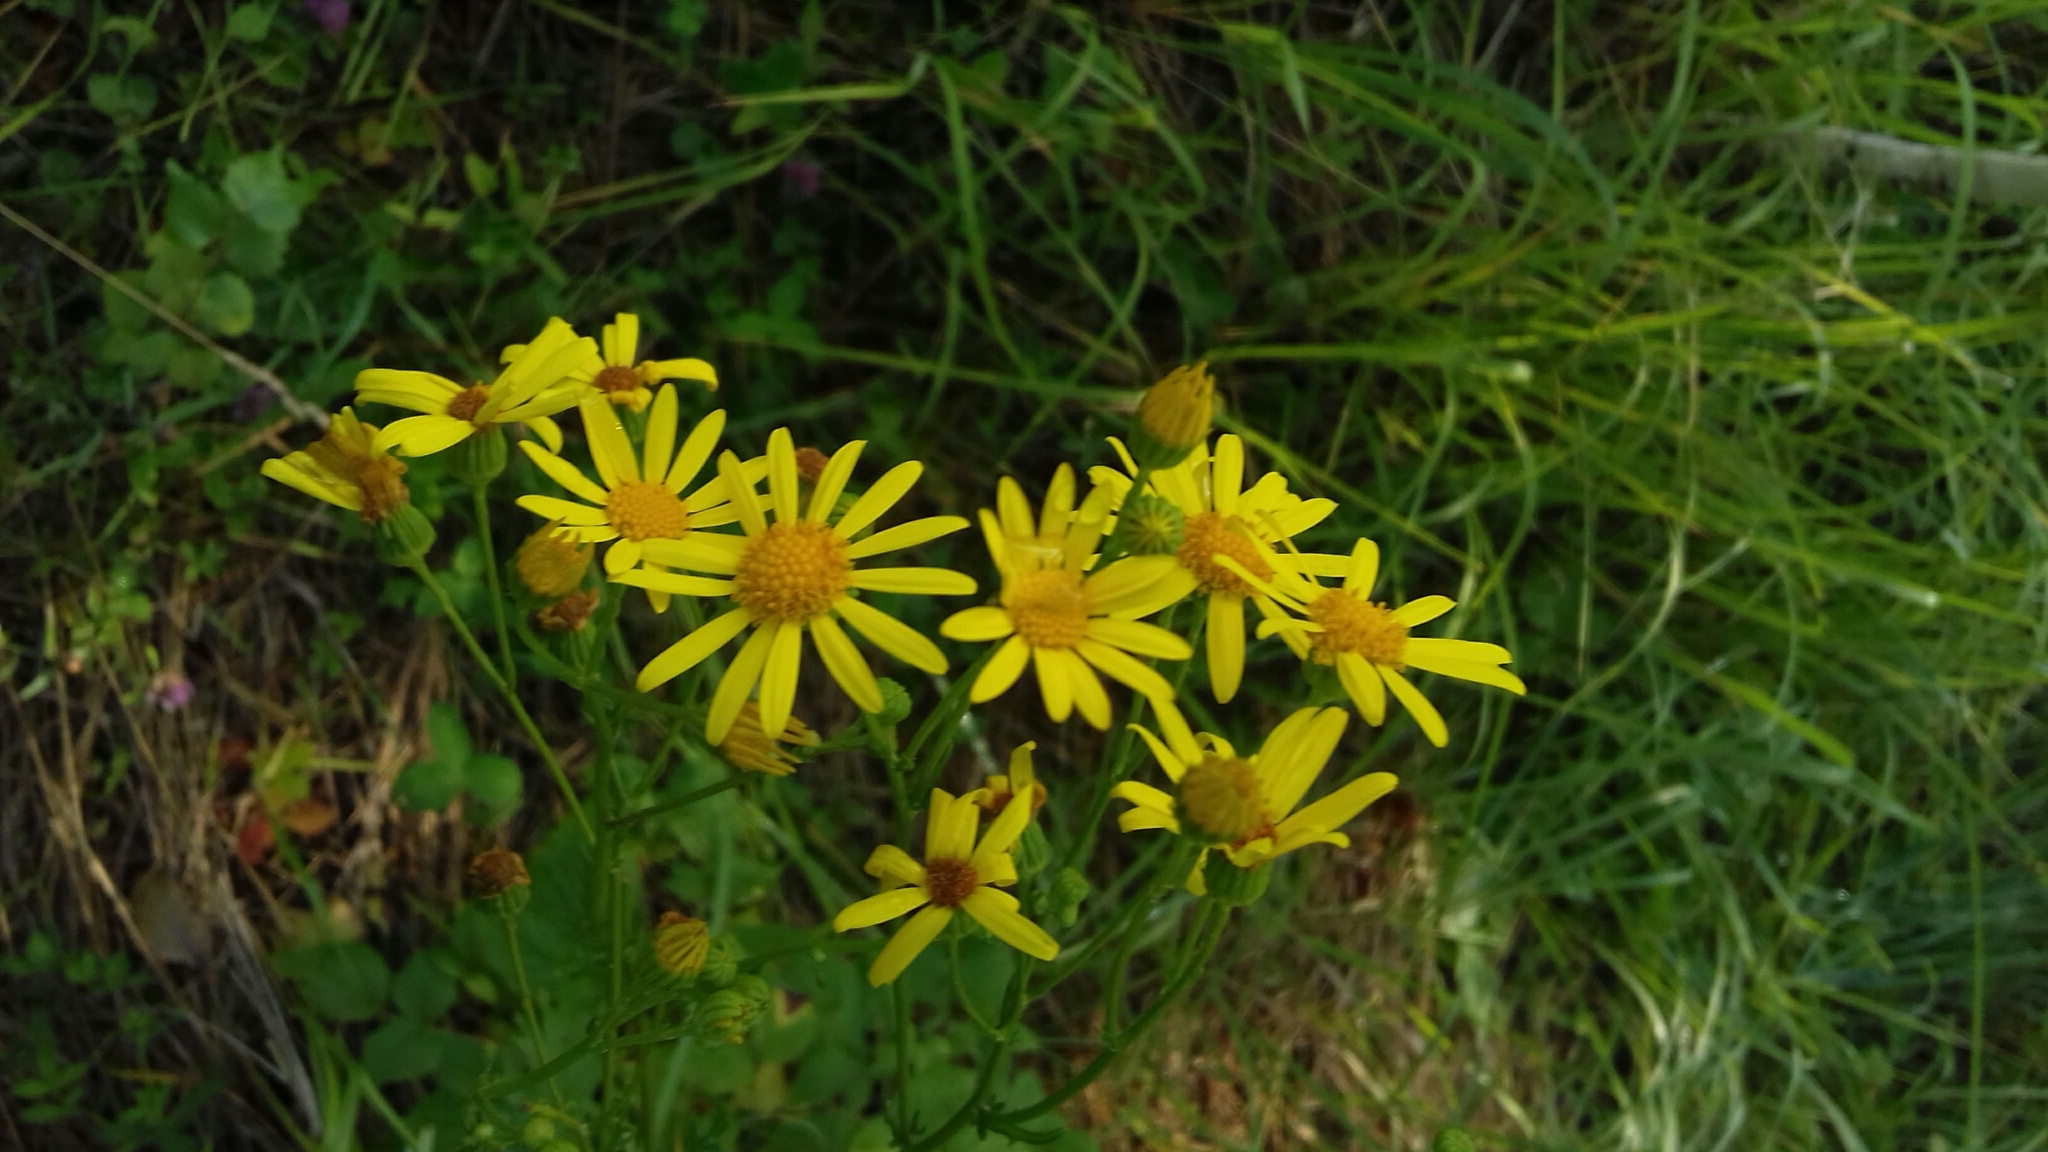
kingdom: Plantae
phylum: Tracheophyta
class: Magnoliopsida
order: Asterales
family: Asteraceae
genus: Jacobaea
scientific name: Jacobaea vulgaris
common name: Stinking willie
